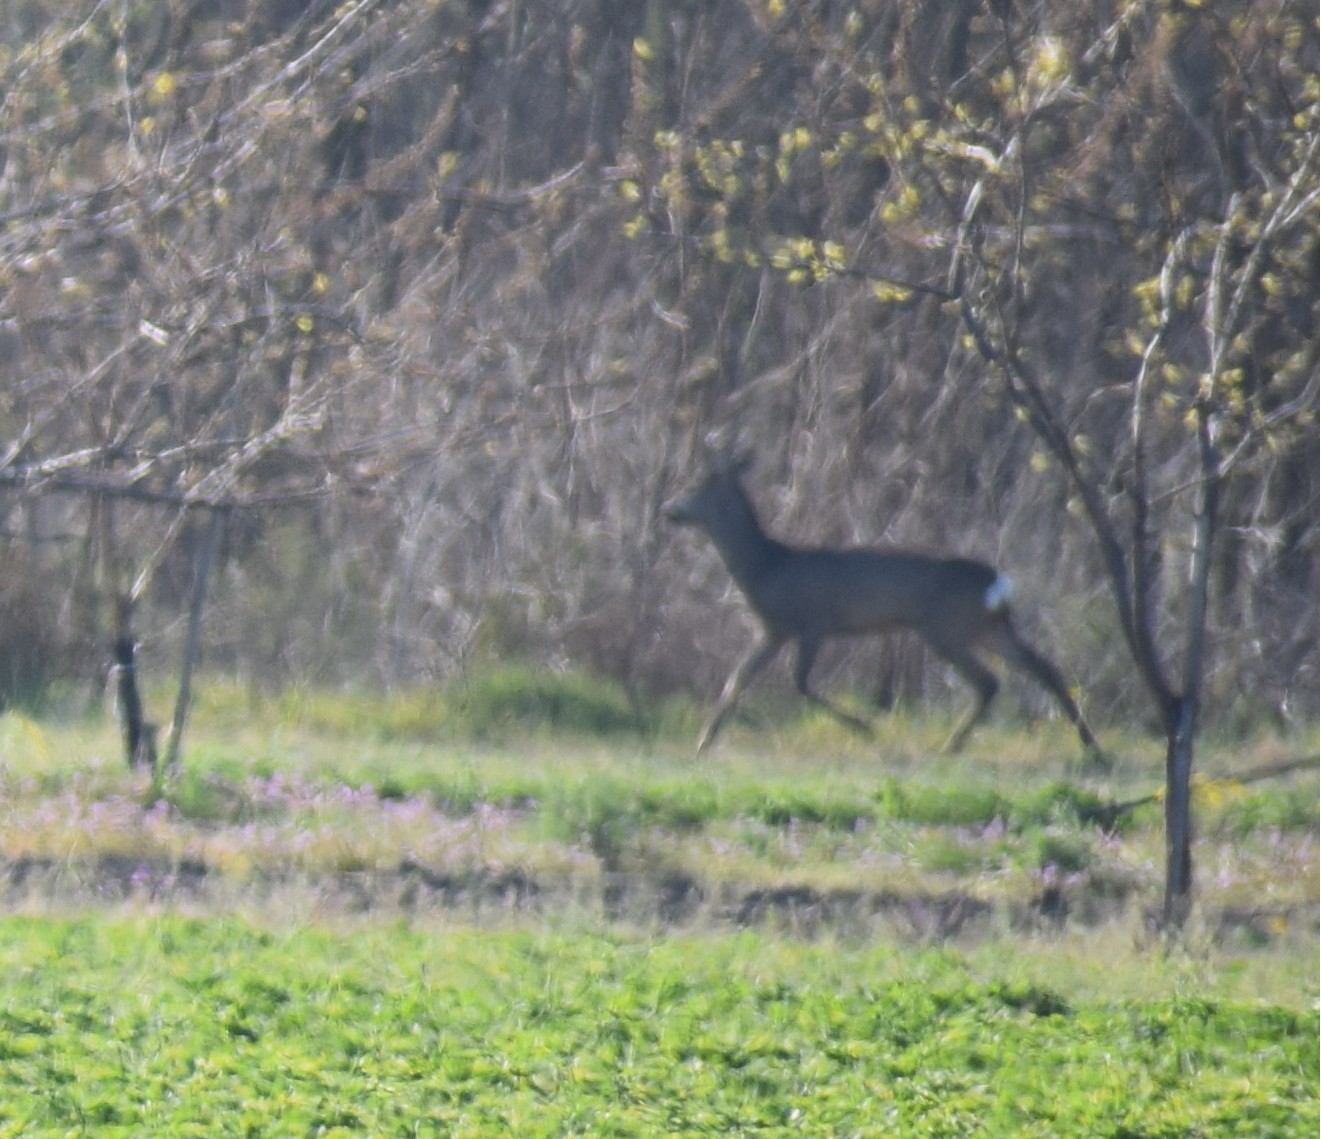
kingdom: Animalia
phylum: Chordata
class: Mammalia
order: Artiodactyla
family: Cervidae
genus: Capreolus
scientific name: Capreolus capreolus
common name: Western roe deer
